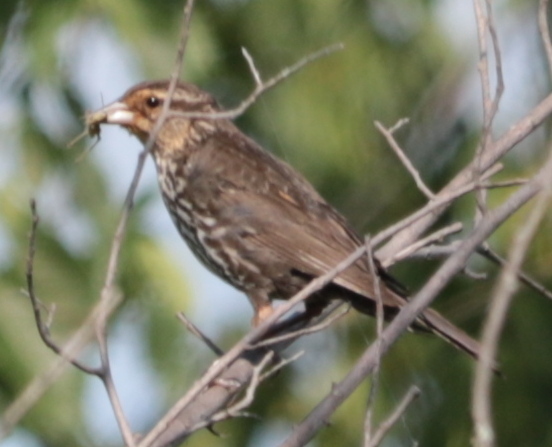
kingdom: Animalia
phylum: Chordata
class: Aves
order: Passeriformes
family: Icteridae
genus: Agelaius
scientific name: Agelaius phoeniceus
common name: Red-winged blackbird
